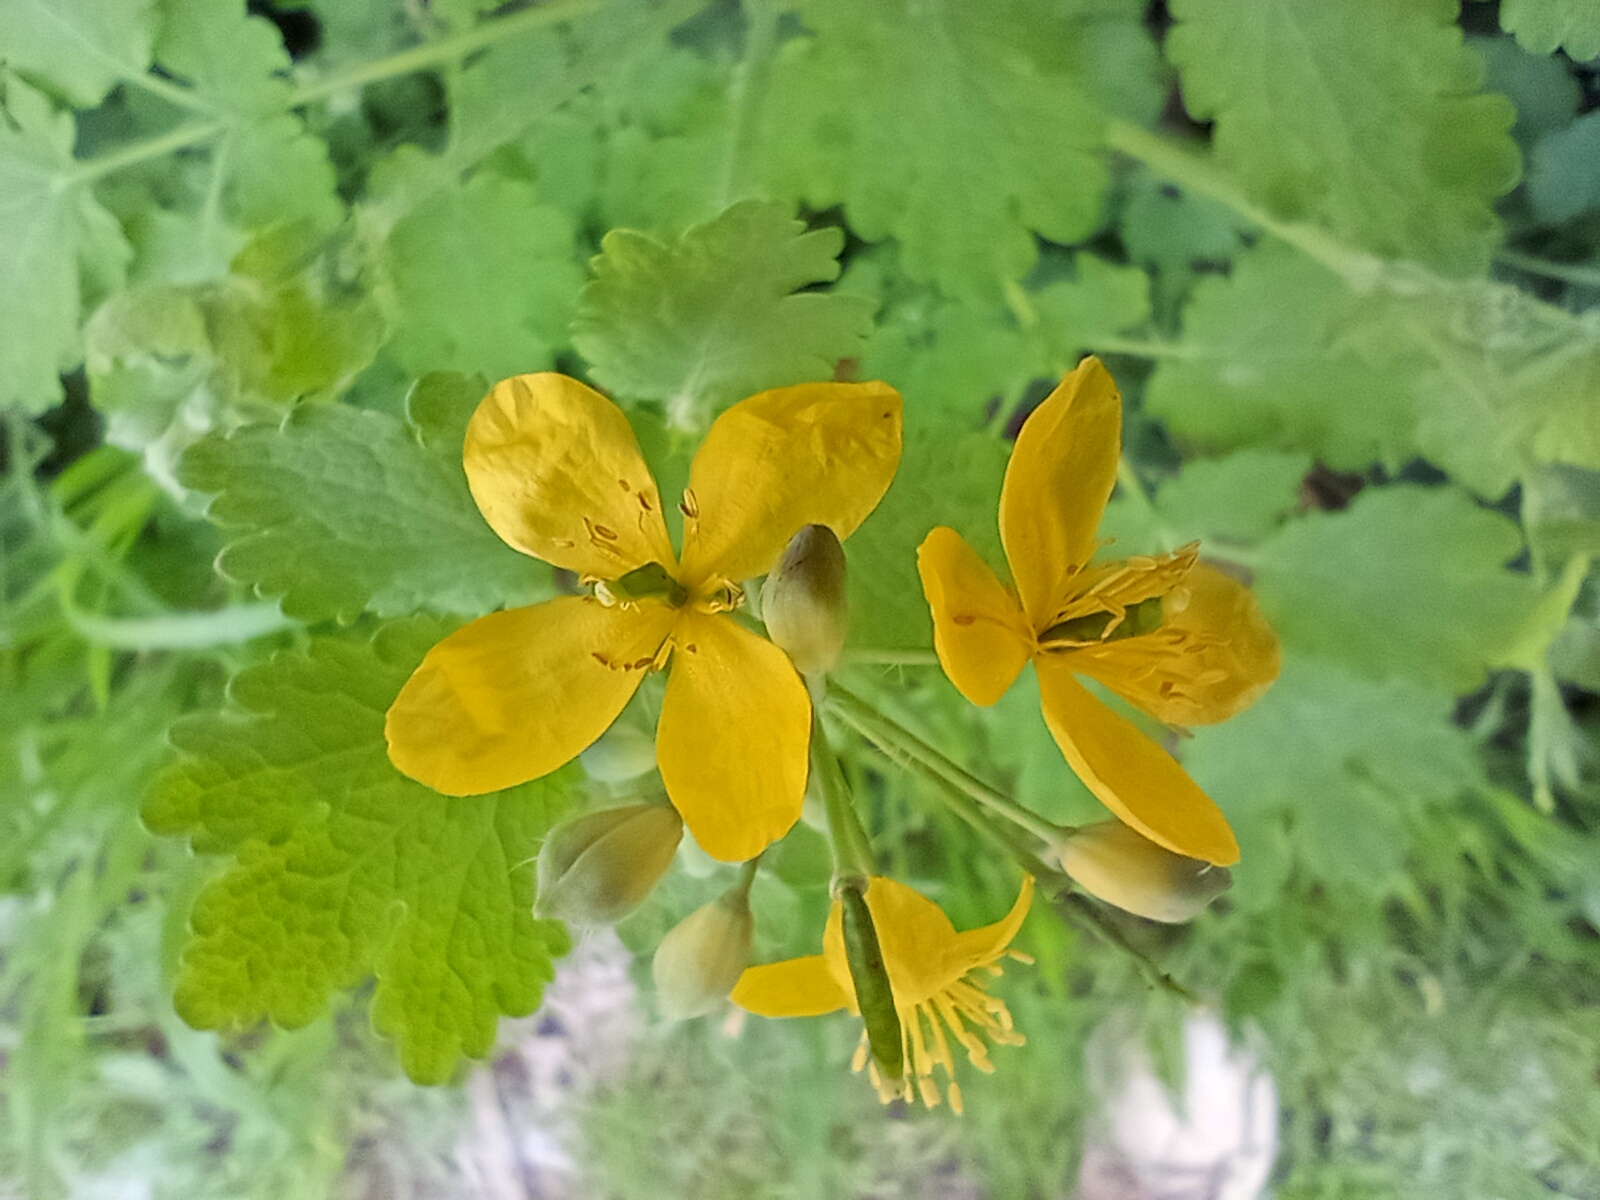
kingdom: Plantae
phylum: Tracheophyta
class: Magnoliopsida
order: Ranunculales
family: Papaveraceae
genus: Chelidonium
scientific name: Chelidonium majus
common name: Greater celandine
